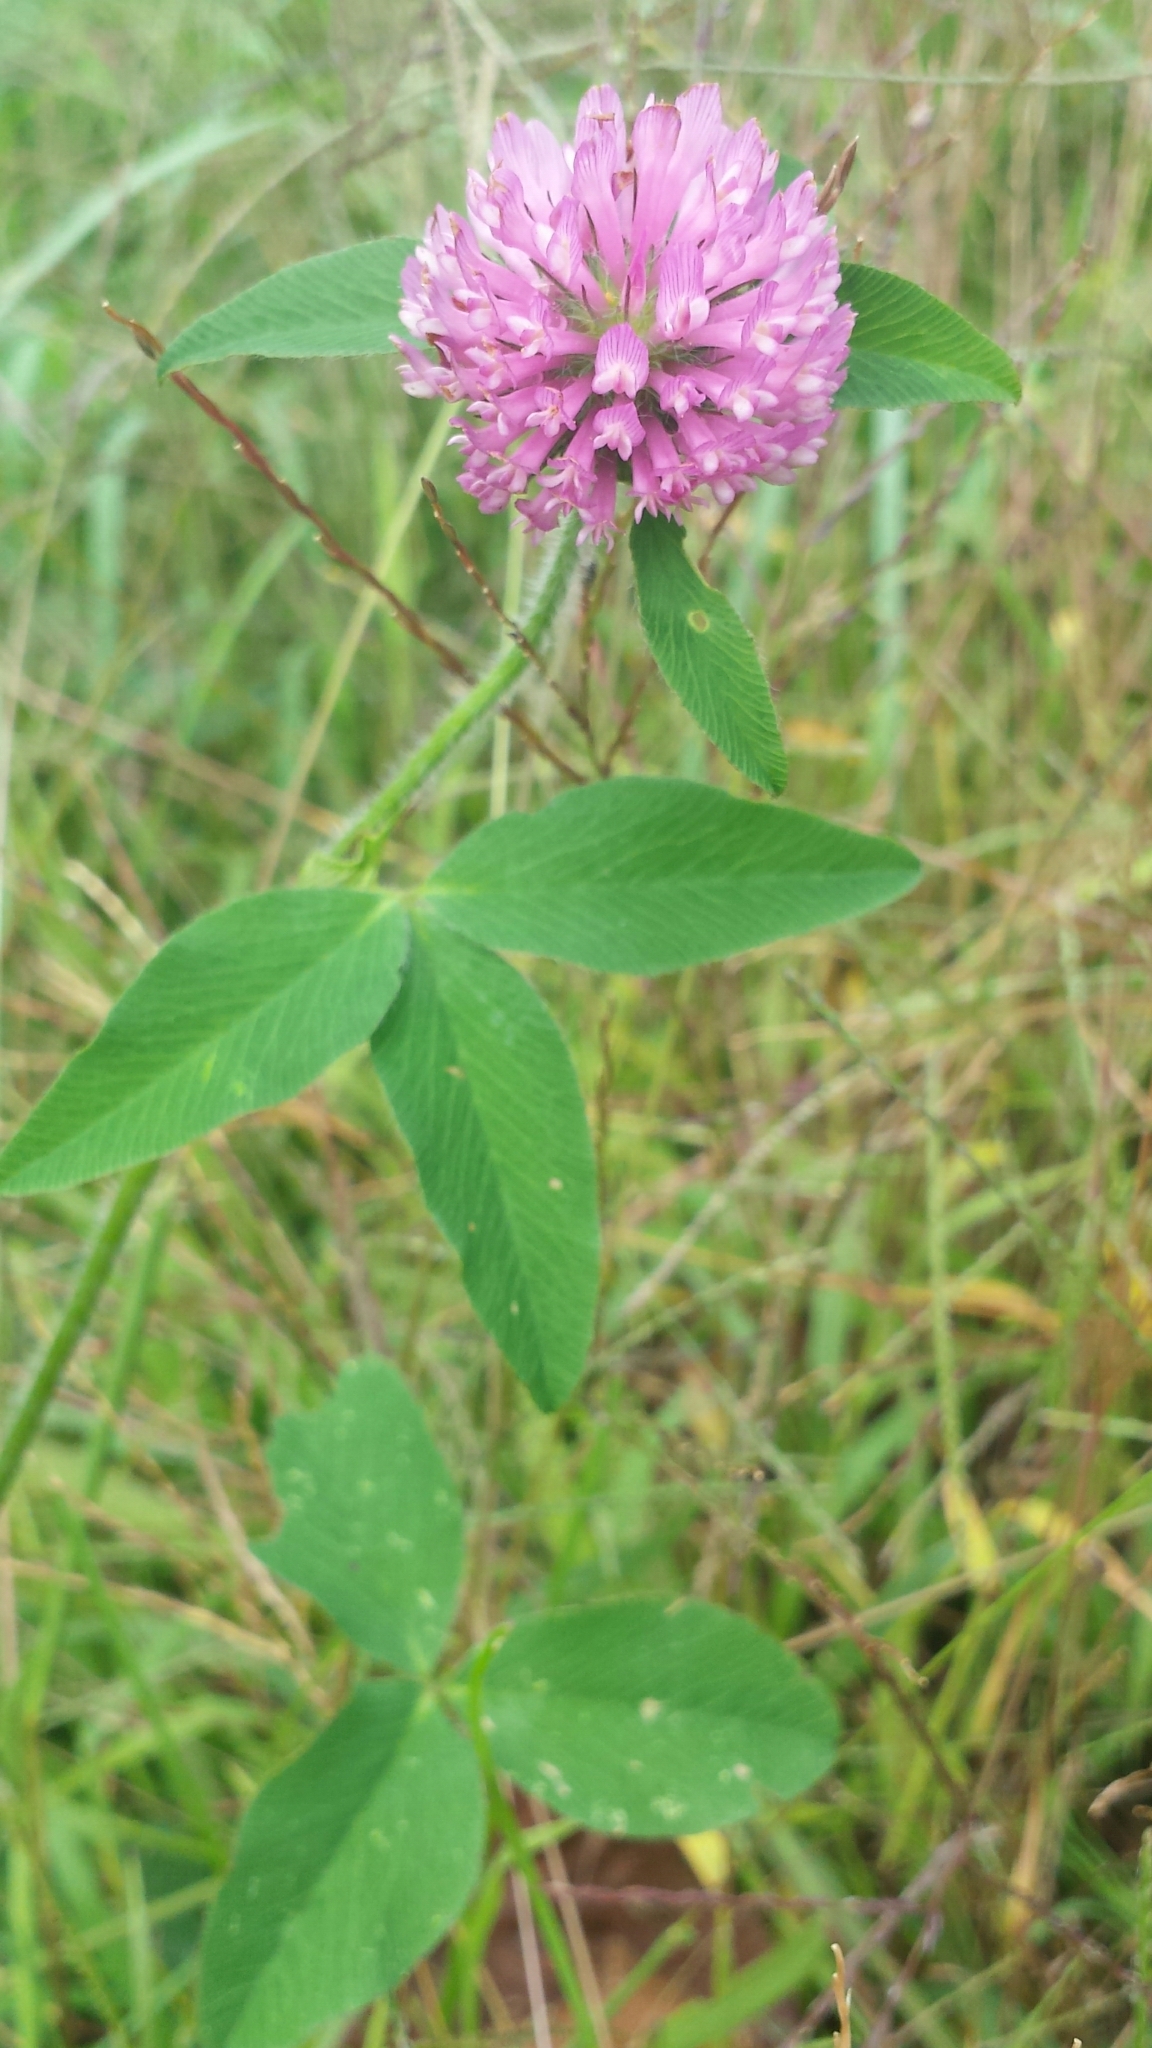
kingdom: Plantae
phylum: Tracheophyta
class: Magnoliopsida
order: Fabales
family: Fabaceae
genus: Trifolium
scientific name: Trifolium pratense
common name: Red clover
